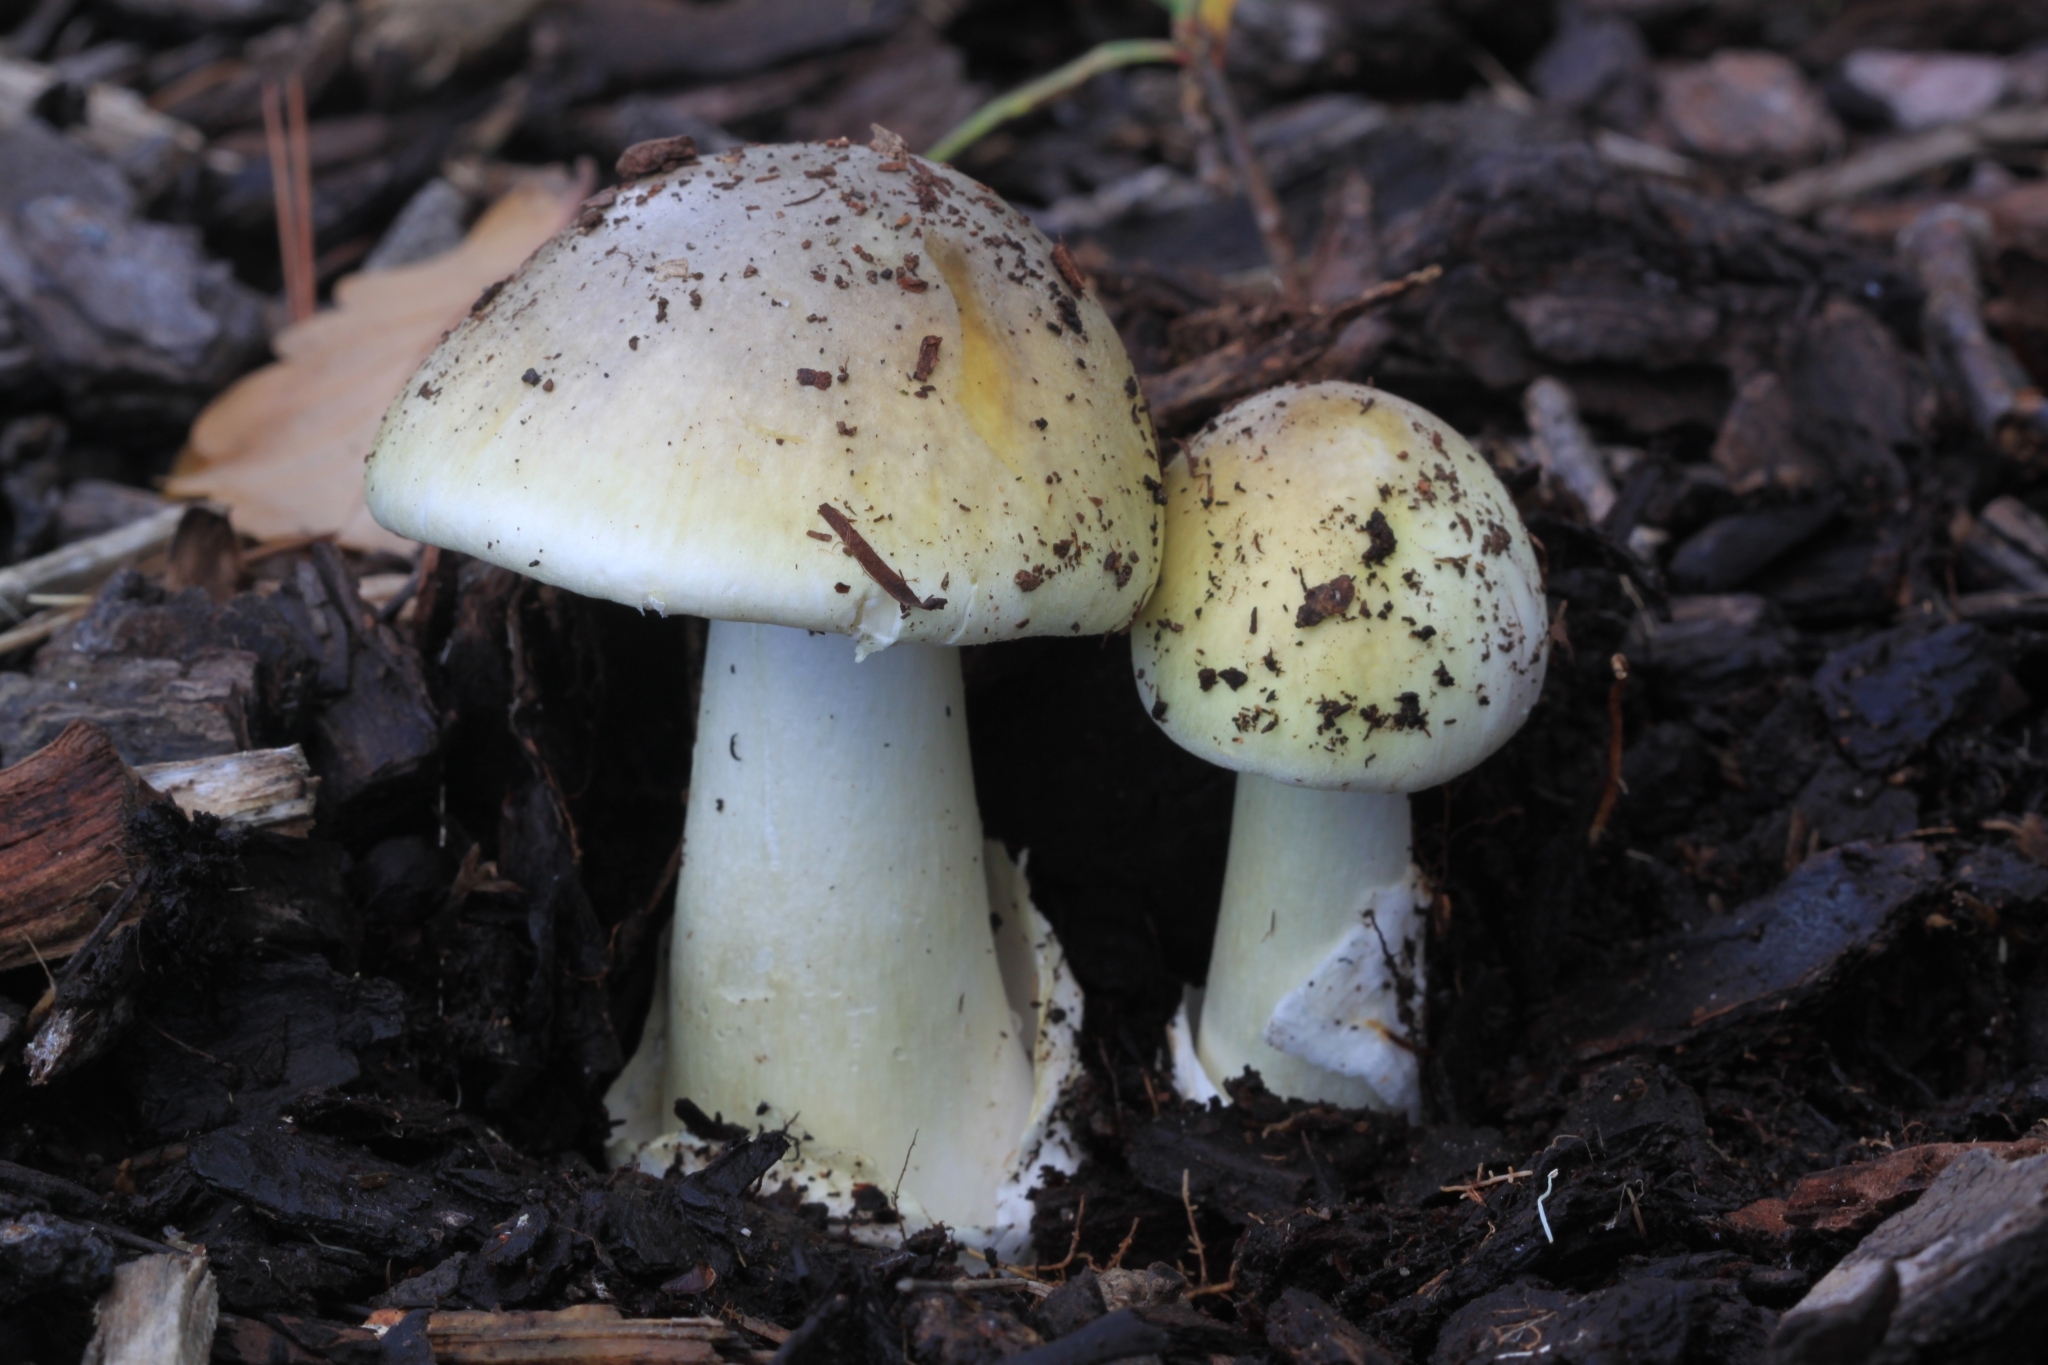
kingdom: Fungi
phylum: Basidiomycota
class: Agaricomycetes
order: Agaricales
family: Amanitaceae
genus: Amanita
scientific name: Amanita phalloides
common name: Death cap
